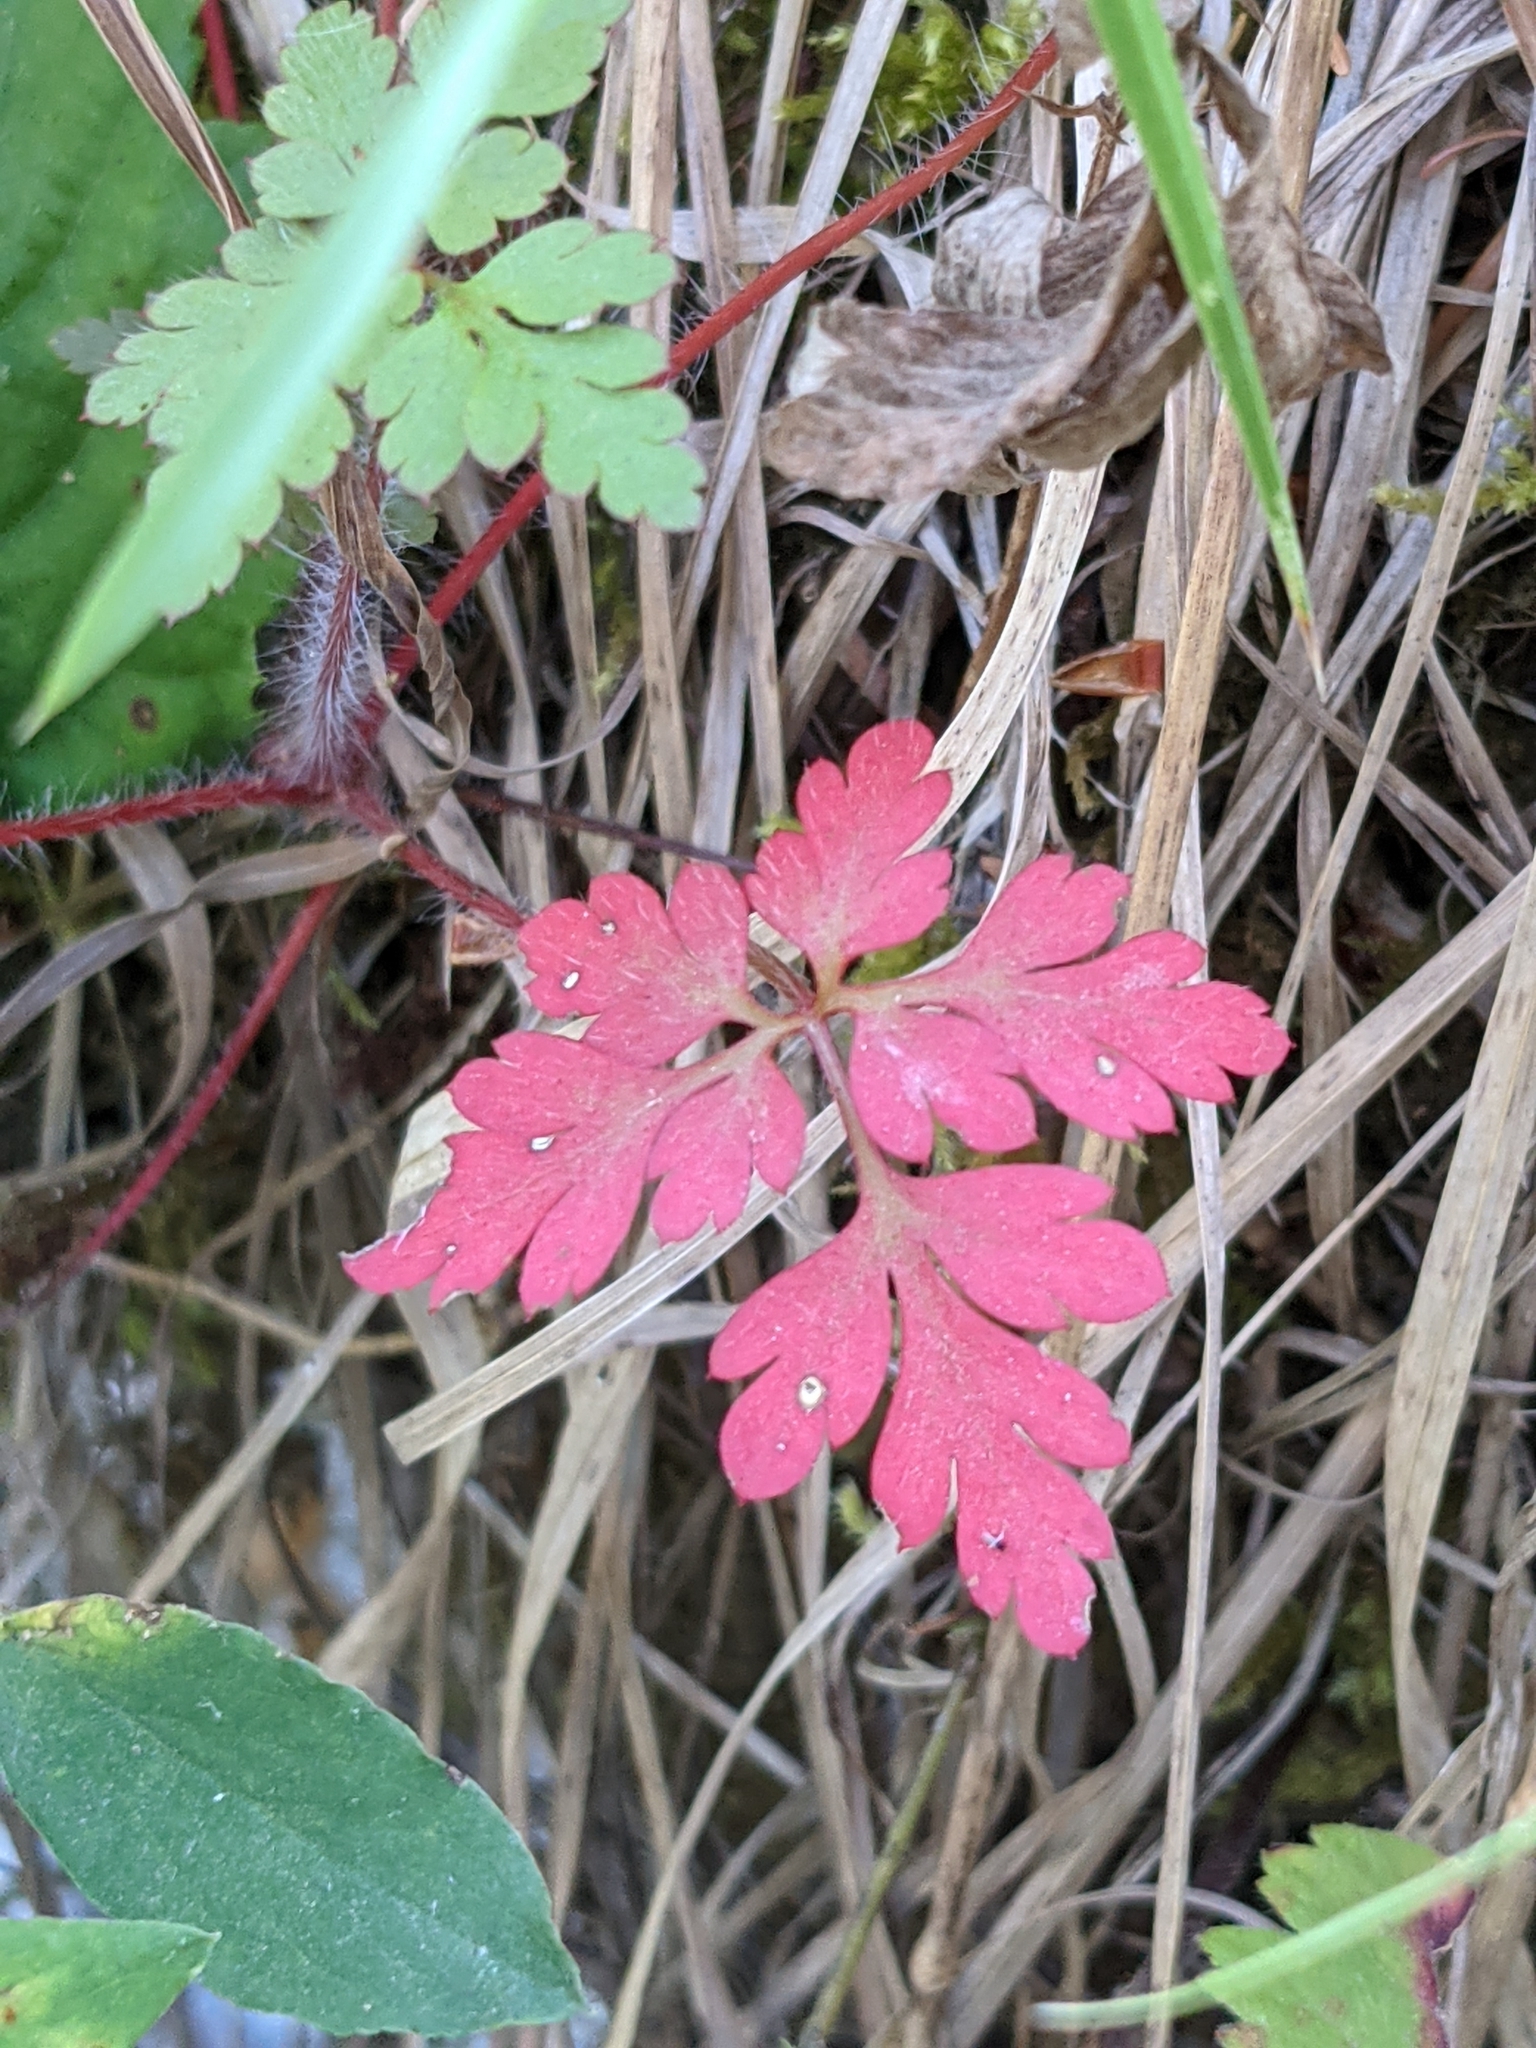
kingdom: Plantae
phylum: Tracheophyta
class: Magnoliopsida
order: Geraniales
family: Geraniaceae
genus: Geranium
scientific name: Geranium robertianum
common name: Herb-robert
